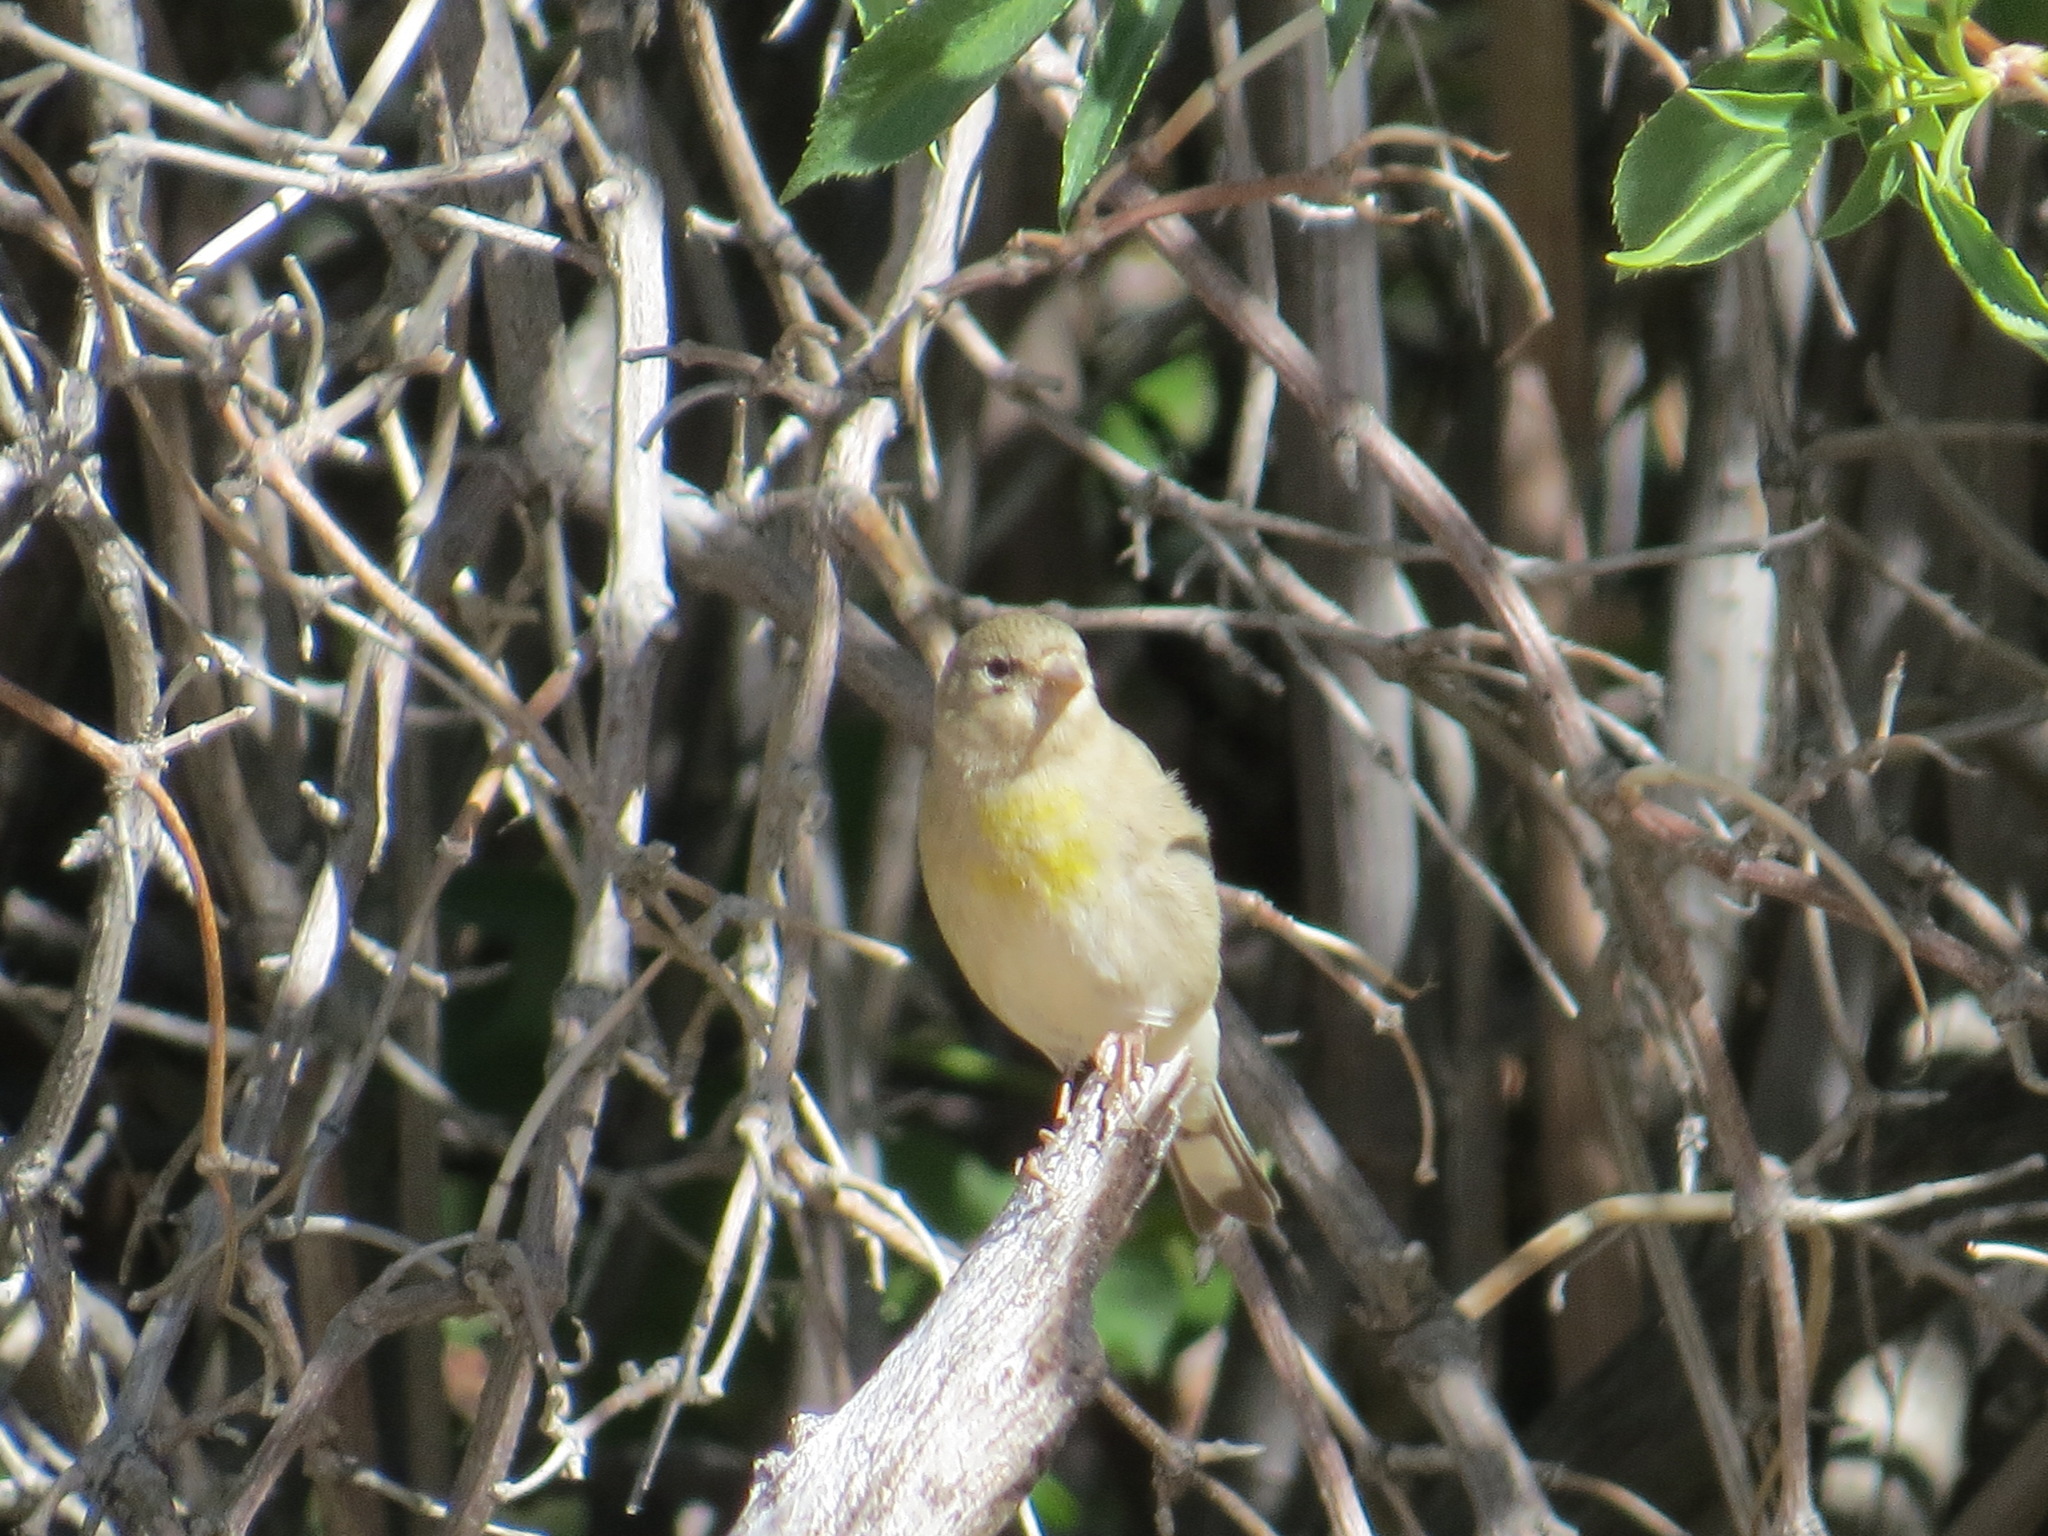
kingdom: Animalia
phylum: Chordata
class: Aves
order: Passeriformes
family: Fringillidae
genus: Spinus
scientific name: Spinus lawrencei
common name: Lawrence's goldfinch
